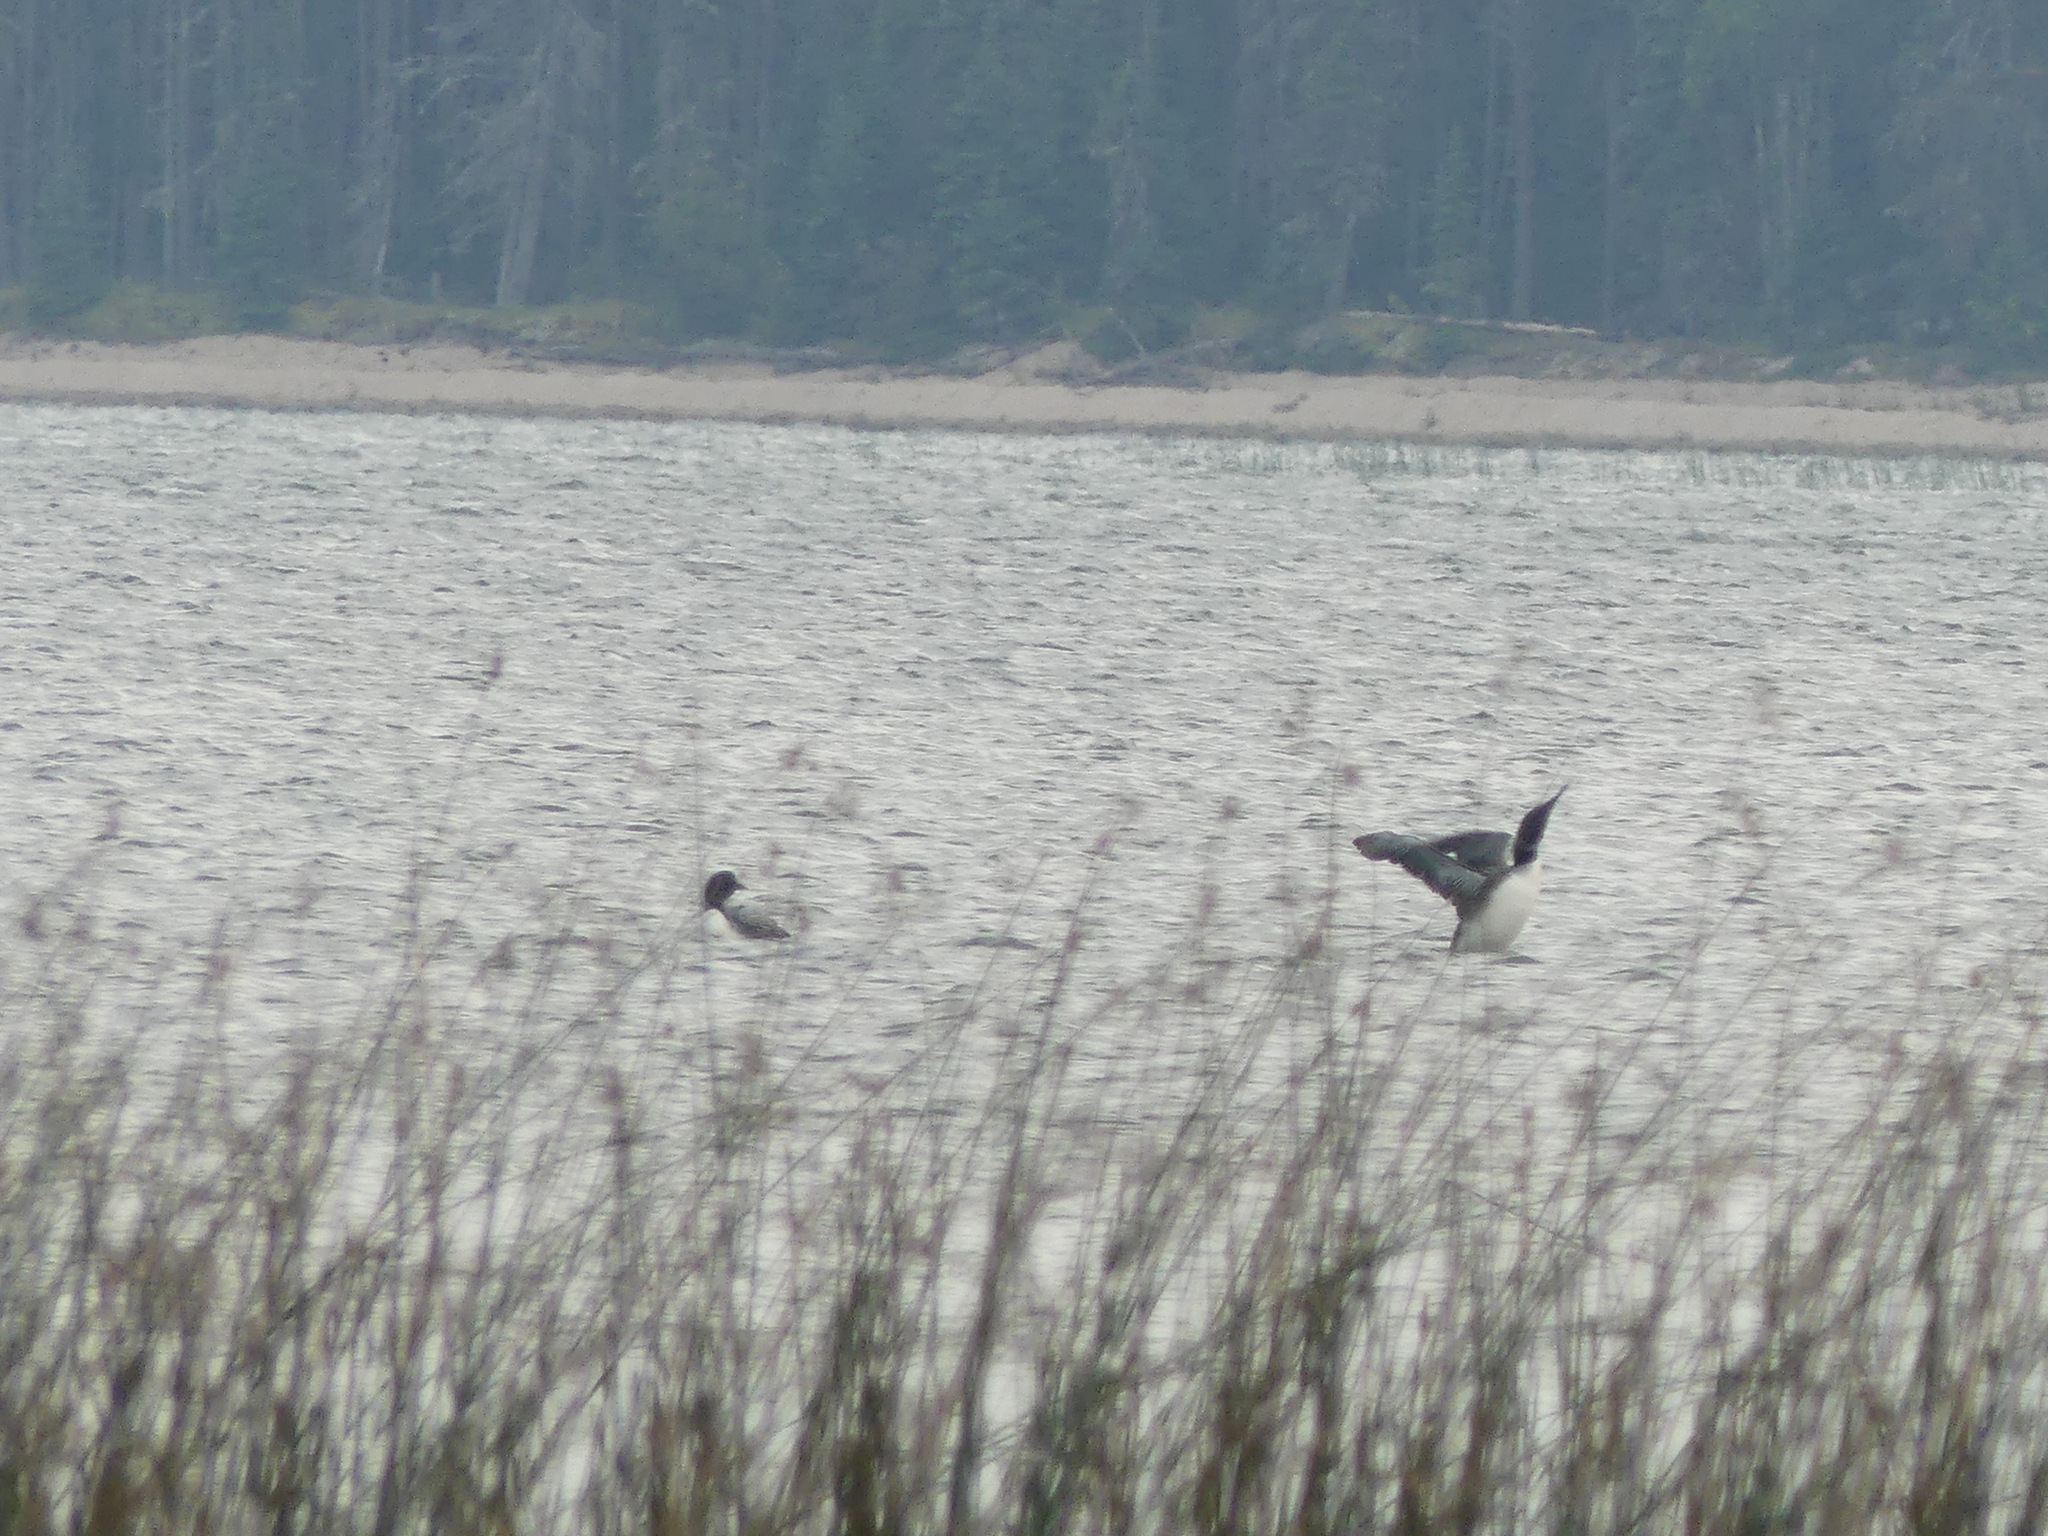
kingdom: Animalia
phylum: Chordata
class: Aves
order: Gaviiformes
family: Gaviidae
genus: Gavia
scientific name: Gavia immer
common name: Common loon
